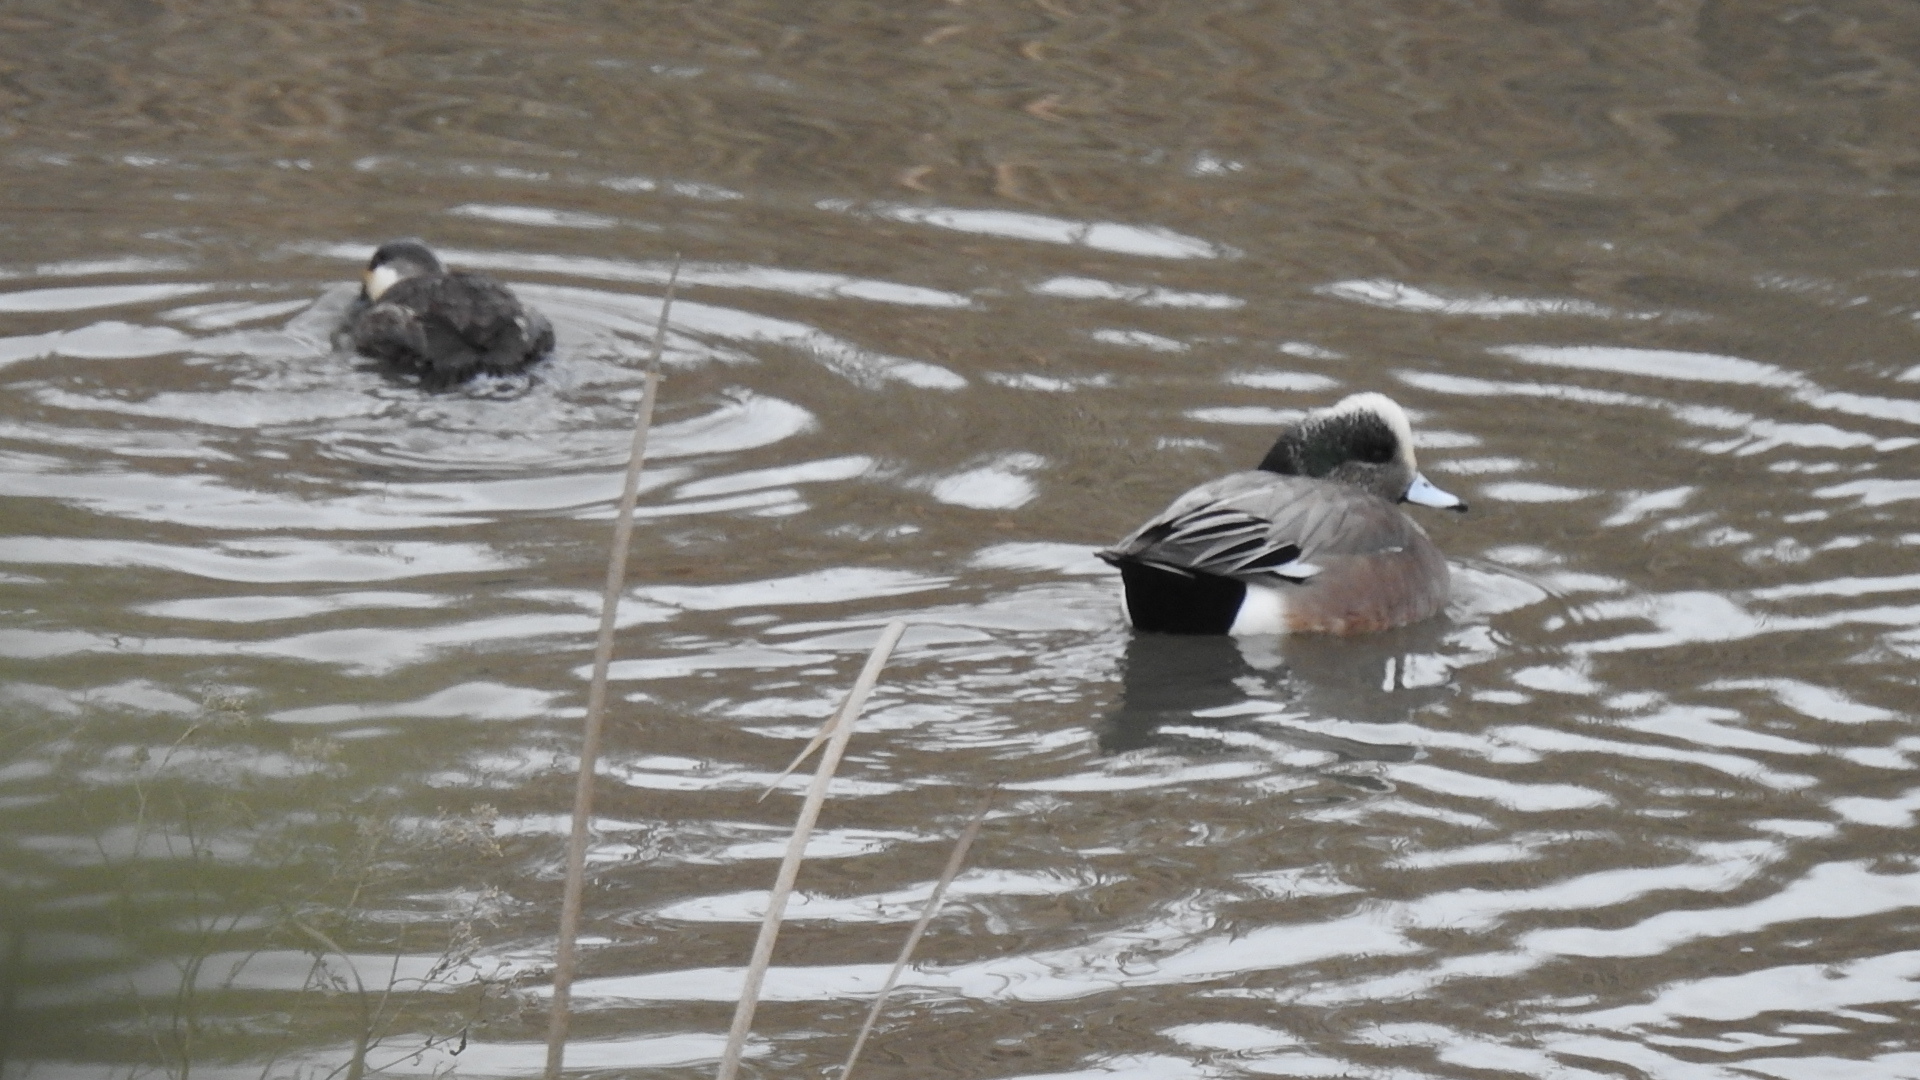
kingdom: Animalia
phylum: Chordata
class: Aves
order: Anseriformes
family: Anatidae
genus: Mareca
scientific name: Mareca americana
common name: American wigeon
